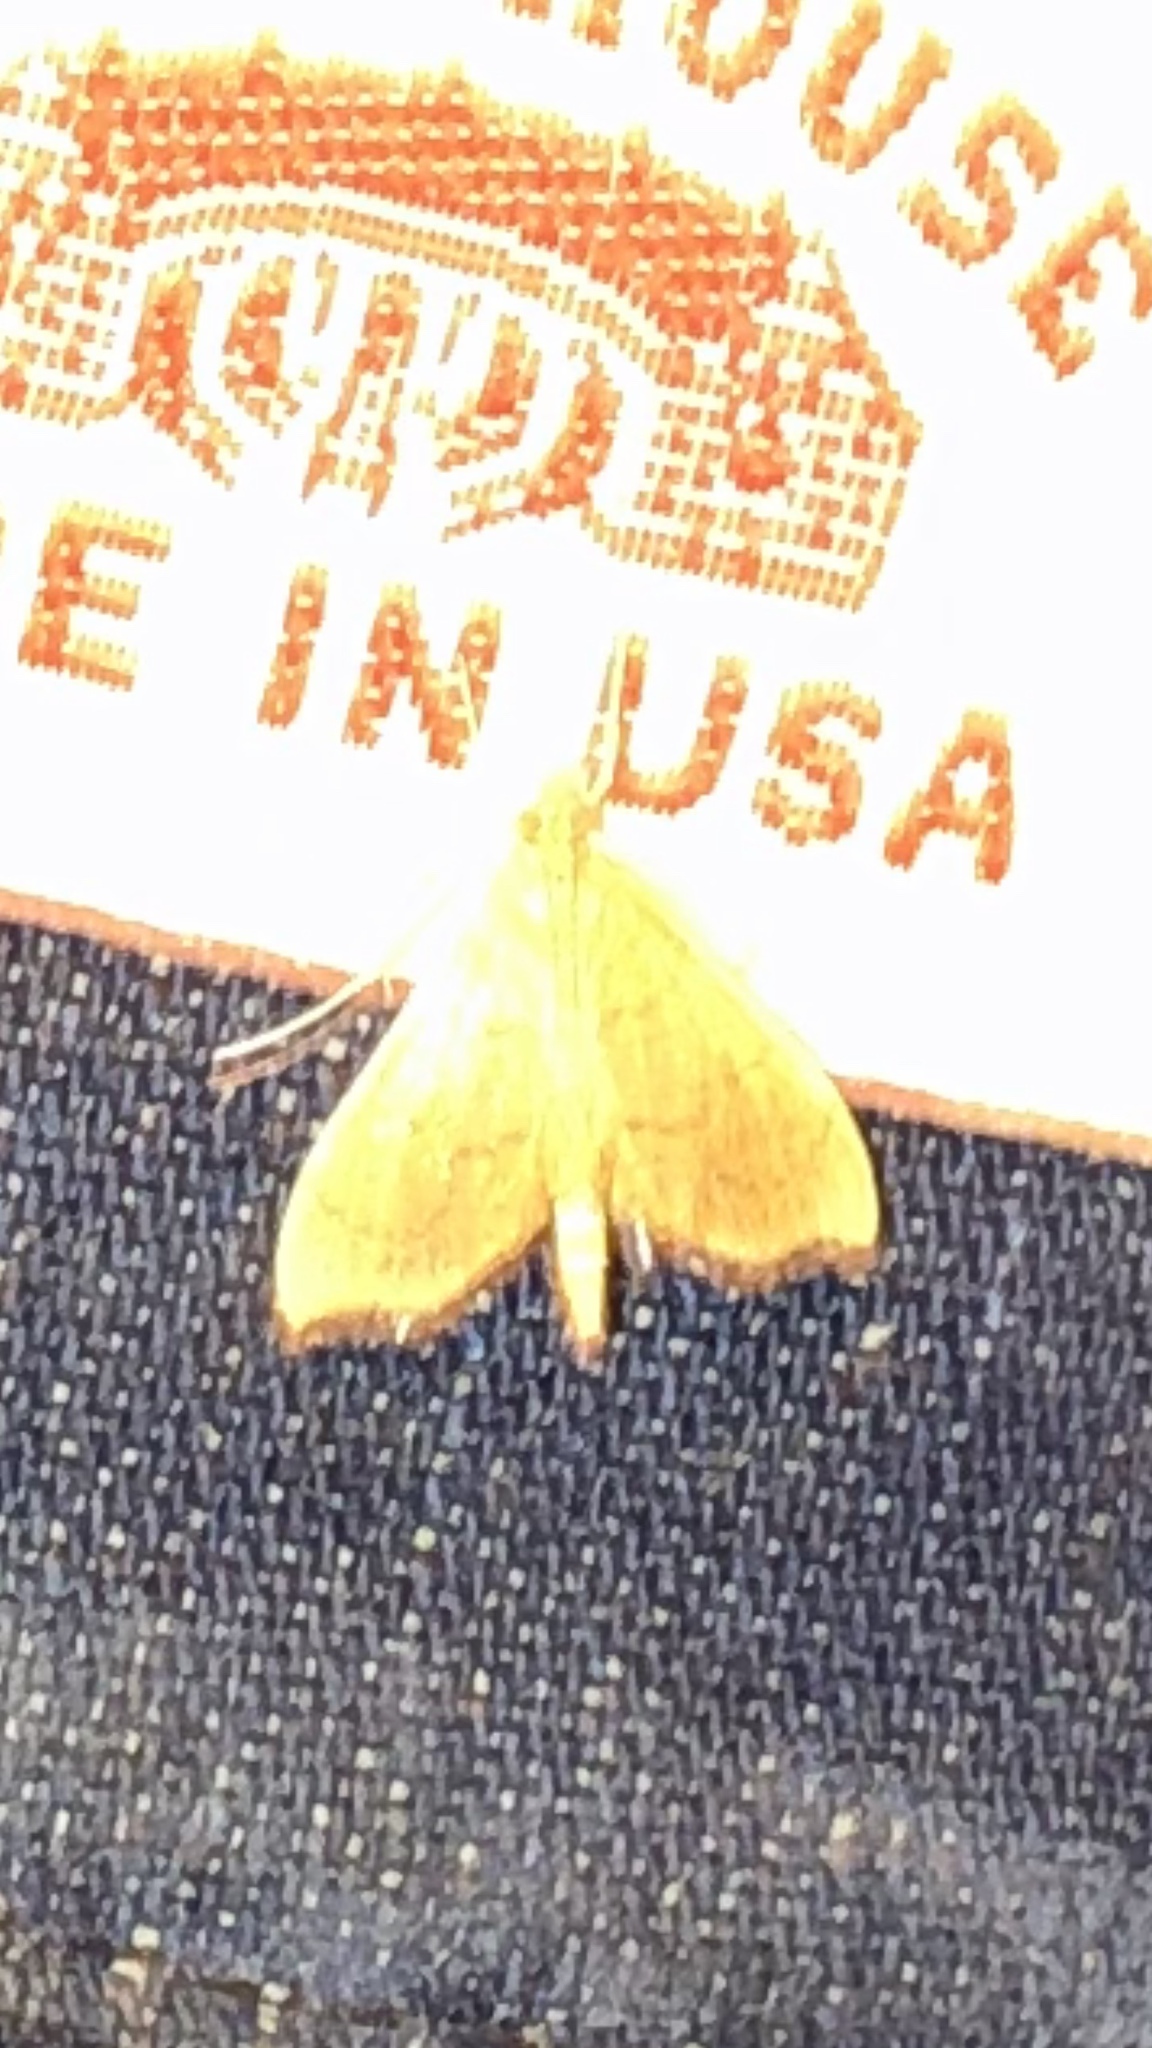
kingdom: Animalia
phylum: Arthropoda
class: Insecta
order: Lepidoptera
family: Crambidae
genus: Sericoplaga
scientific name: Sericoplaga externalis
